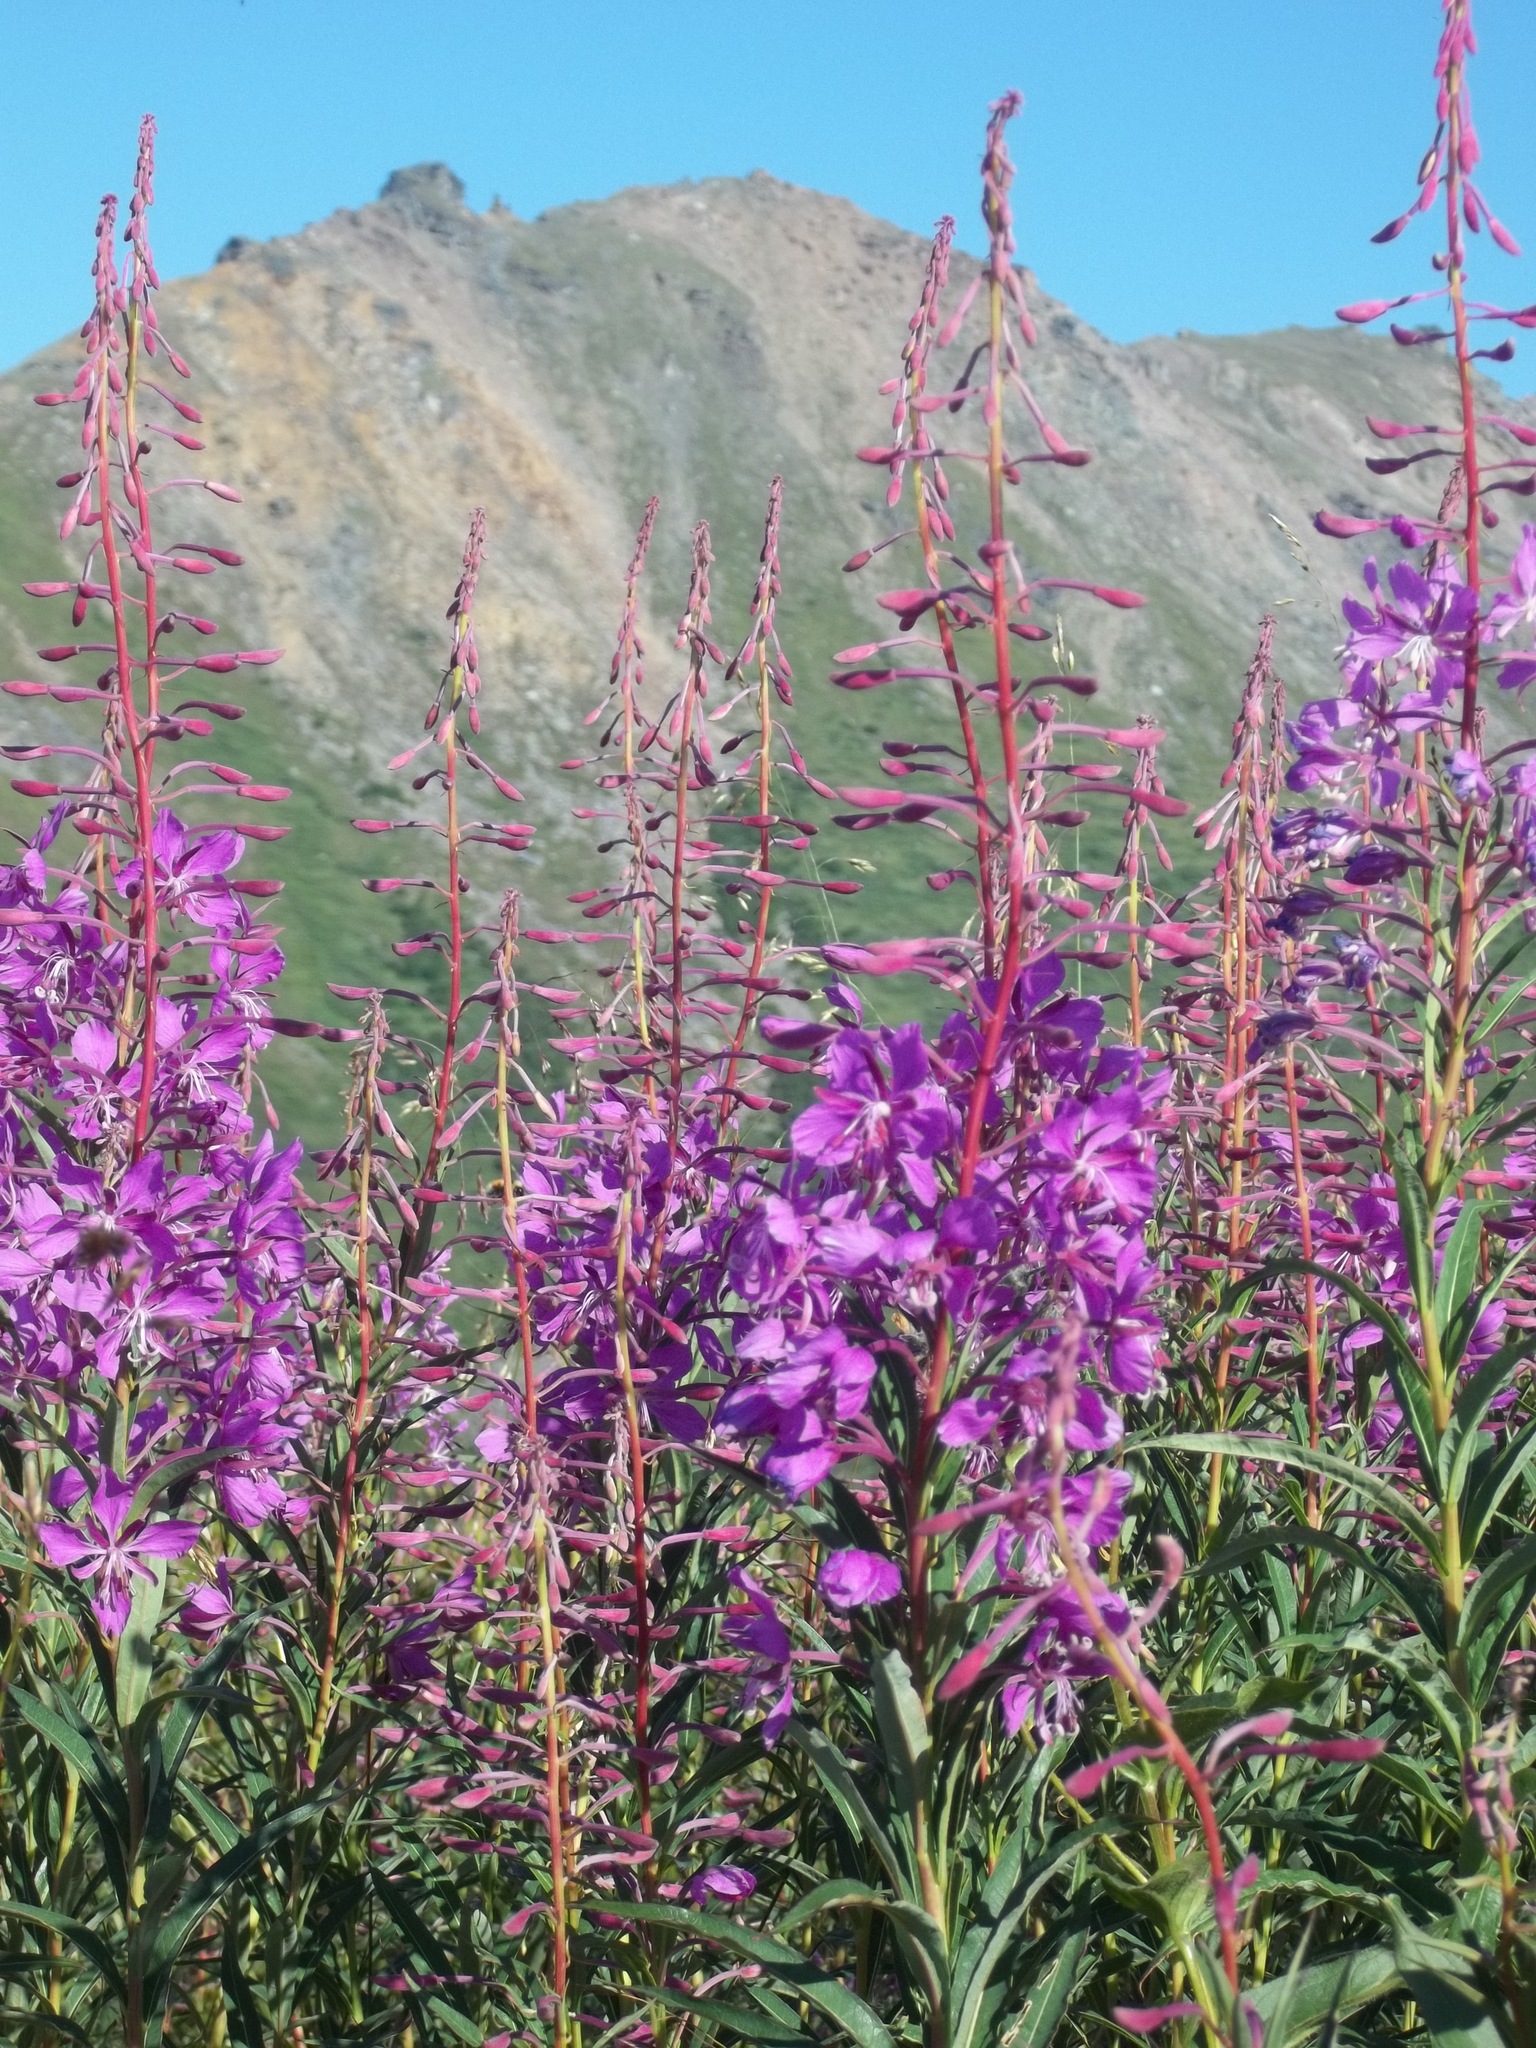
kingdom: Plantae
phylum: Tracheophyta
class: Magnoliopsida
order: Myrtales
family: Onagraceae
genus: Chamaenerion
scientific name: Chamaenerion angustifolium
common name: Fireweed
